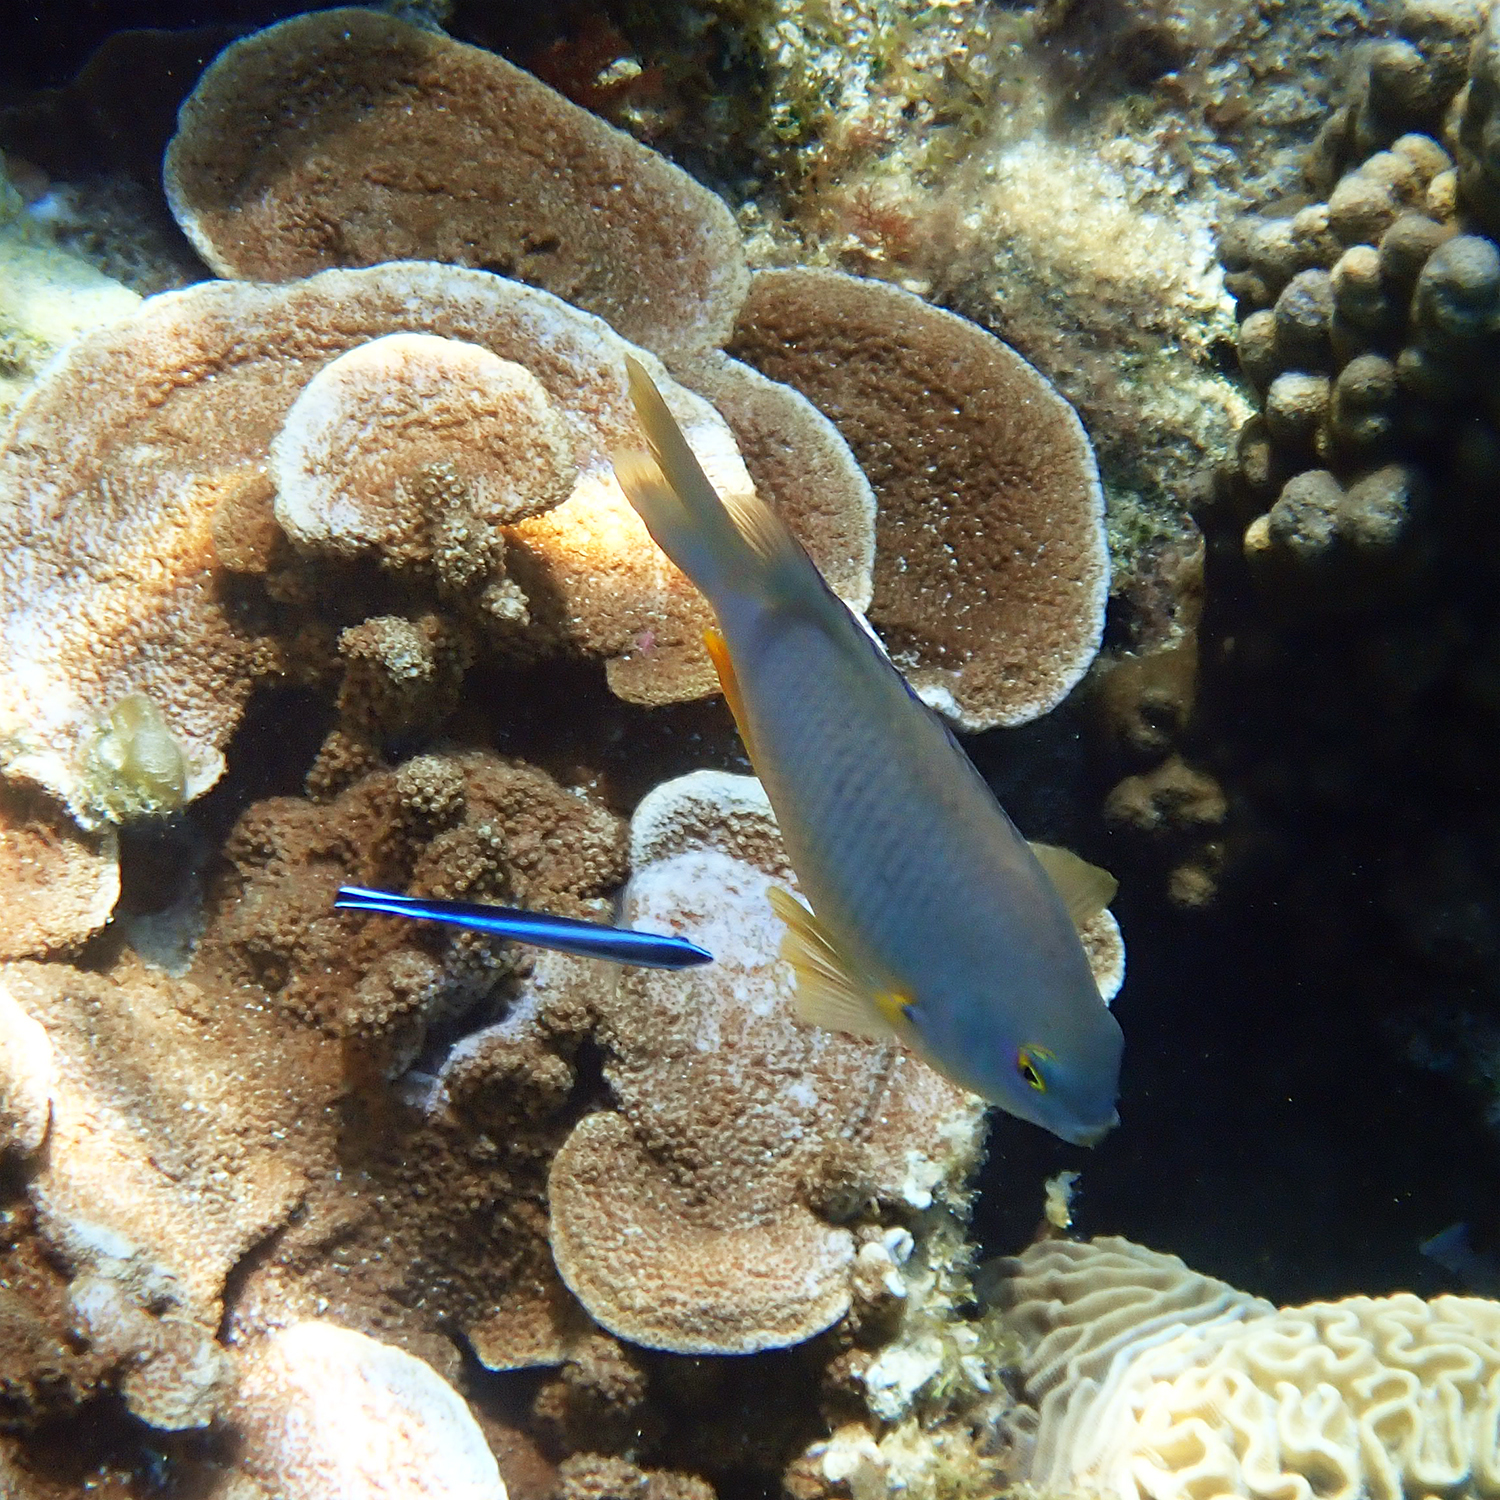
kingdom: Animalia
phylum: Chordata
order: Perciformes
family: Labridae
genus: Labroides
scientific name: Labroides dimidiatus
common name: Blue diesel wrasse
